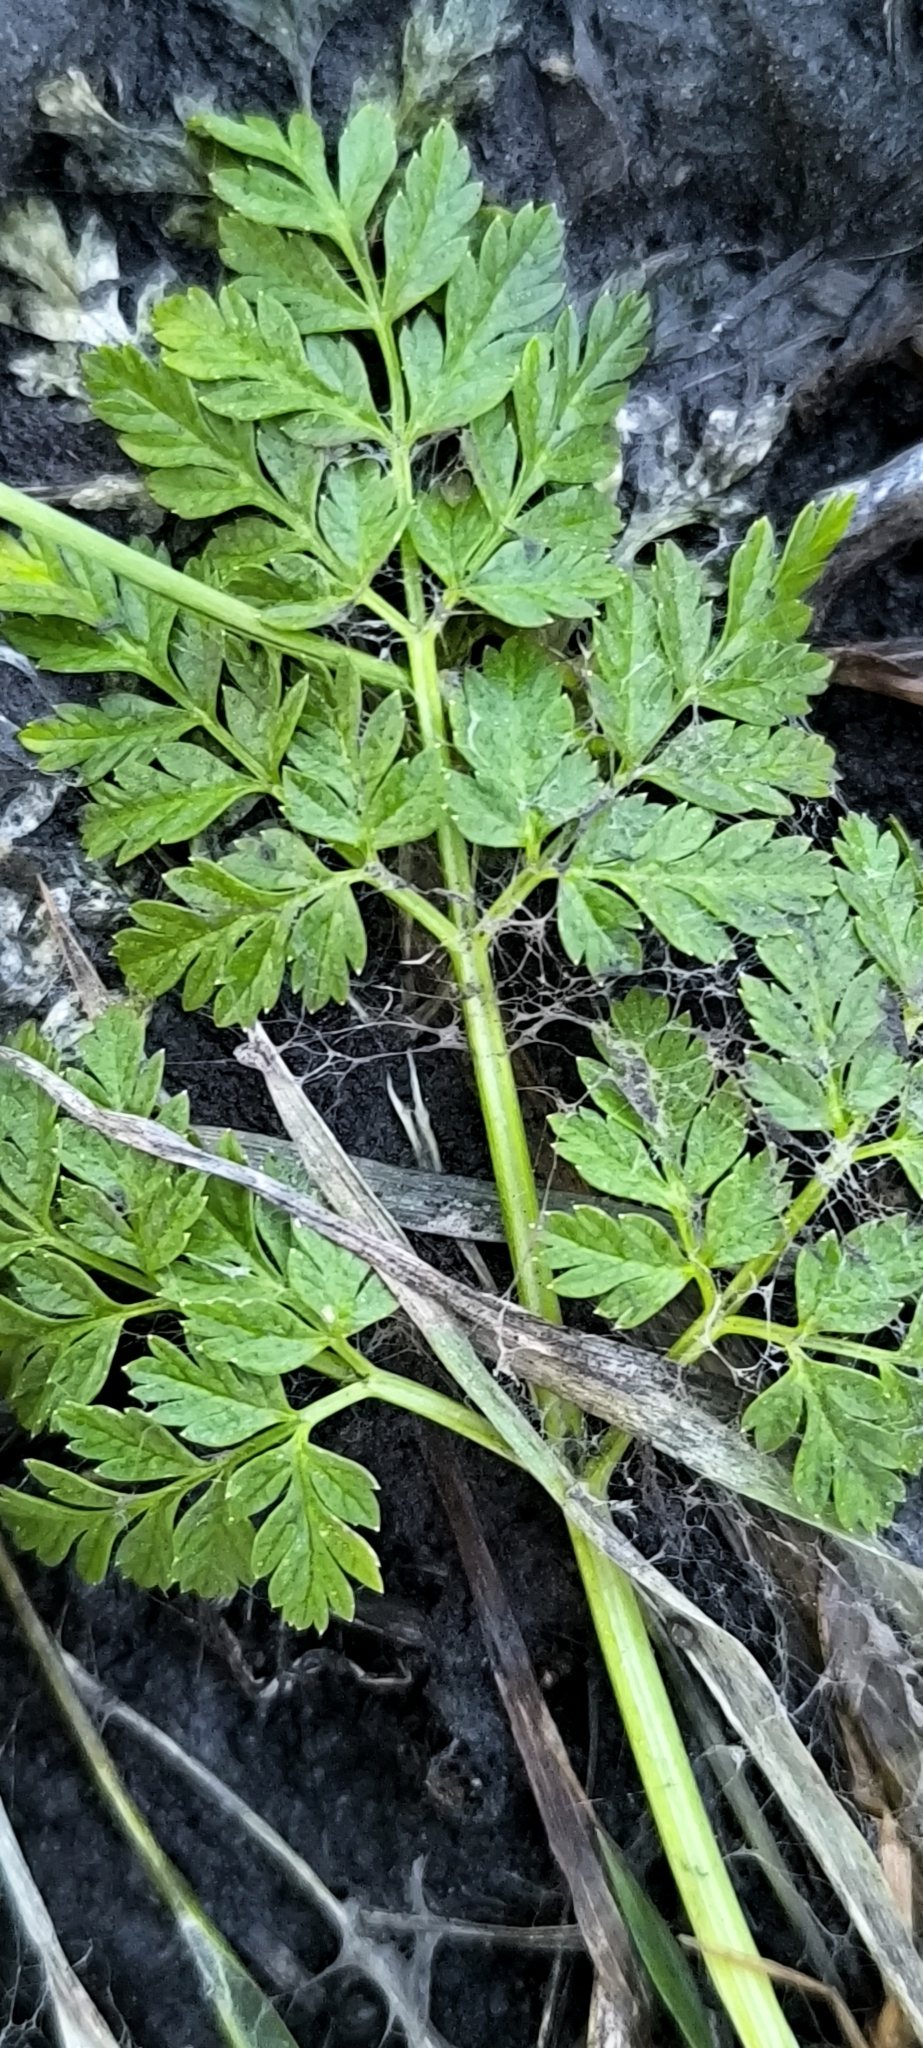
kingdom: Plantae
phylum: Tracheophyta
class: Magnoliopsida
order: Apiales
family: Apiaceae
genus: Anthriscus
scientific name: Anthriscus sylvestris
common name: Cow parsley
